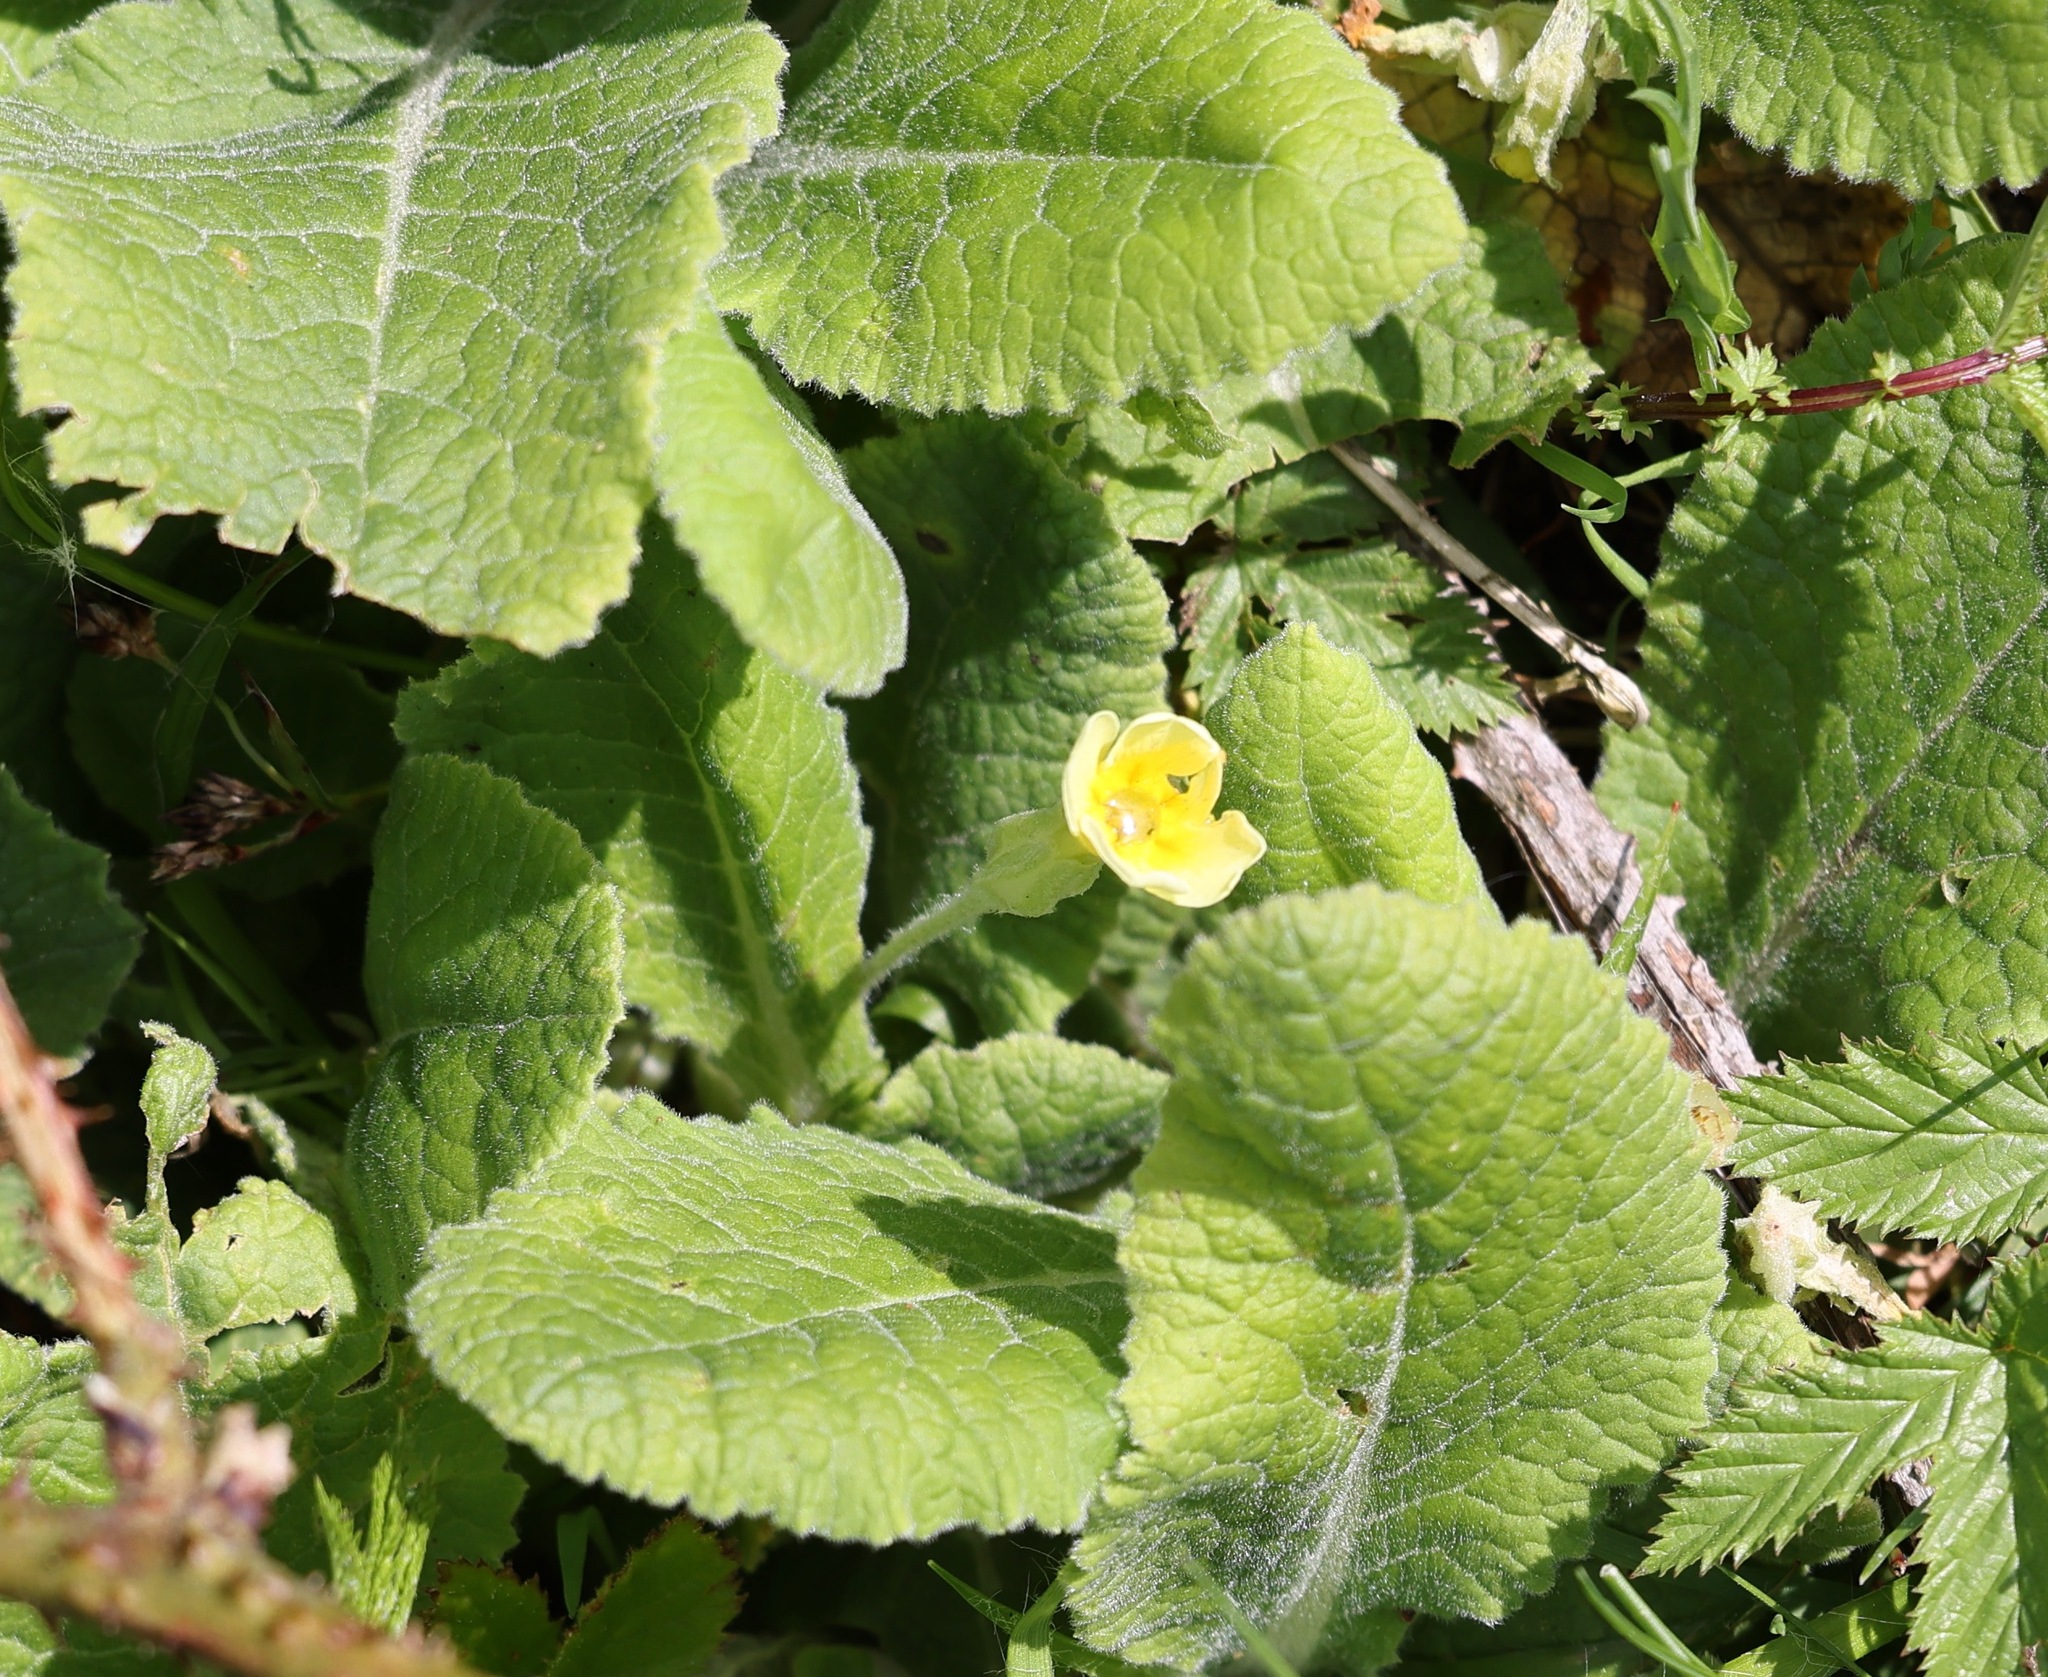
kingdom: Plantae
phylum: Tracheophyta
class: Magnoliopsida
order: Ericales
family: Primulaceae
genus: Primula
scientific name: Primula vulgaris
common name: Primrose
